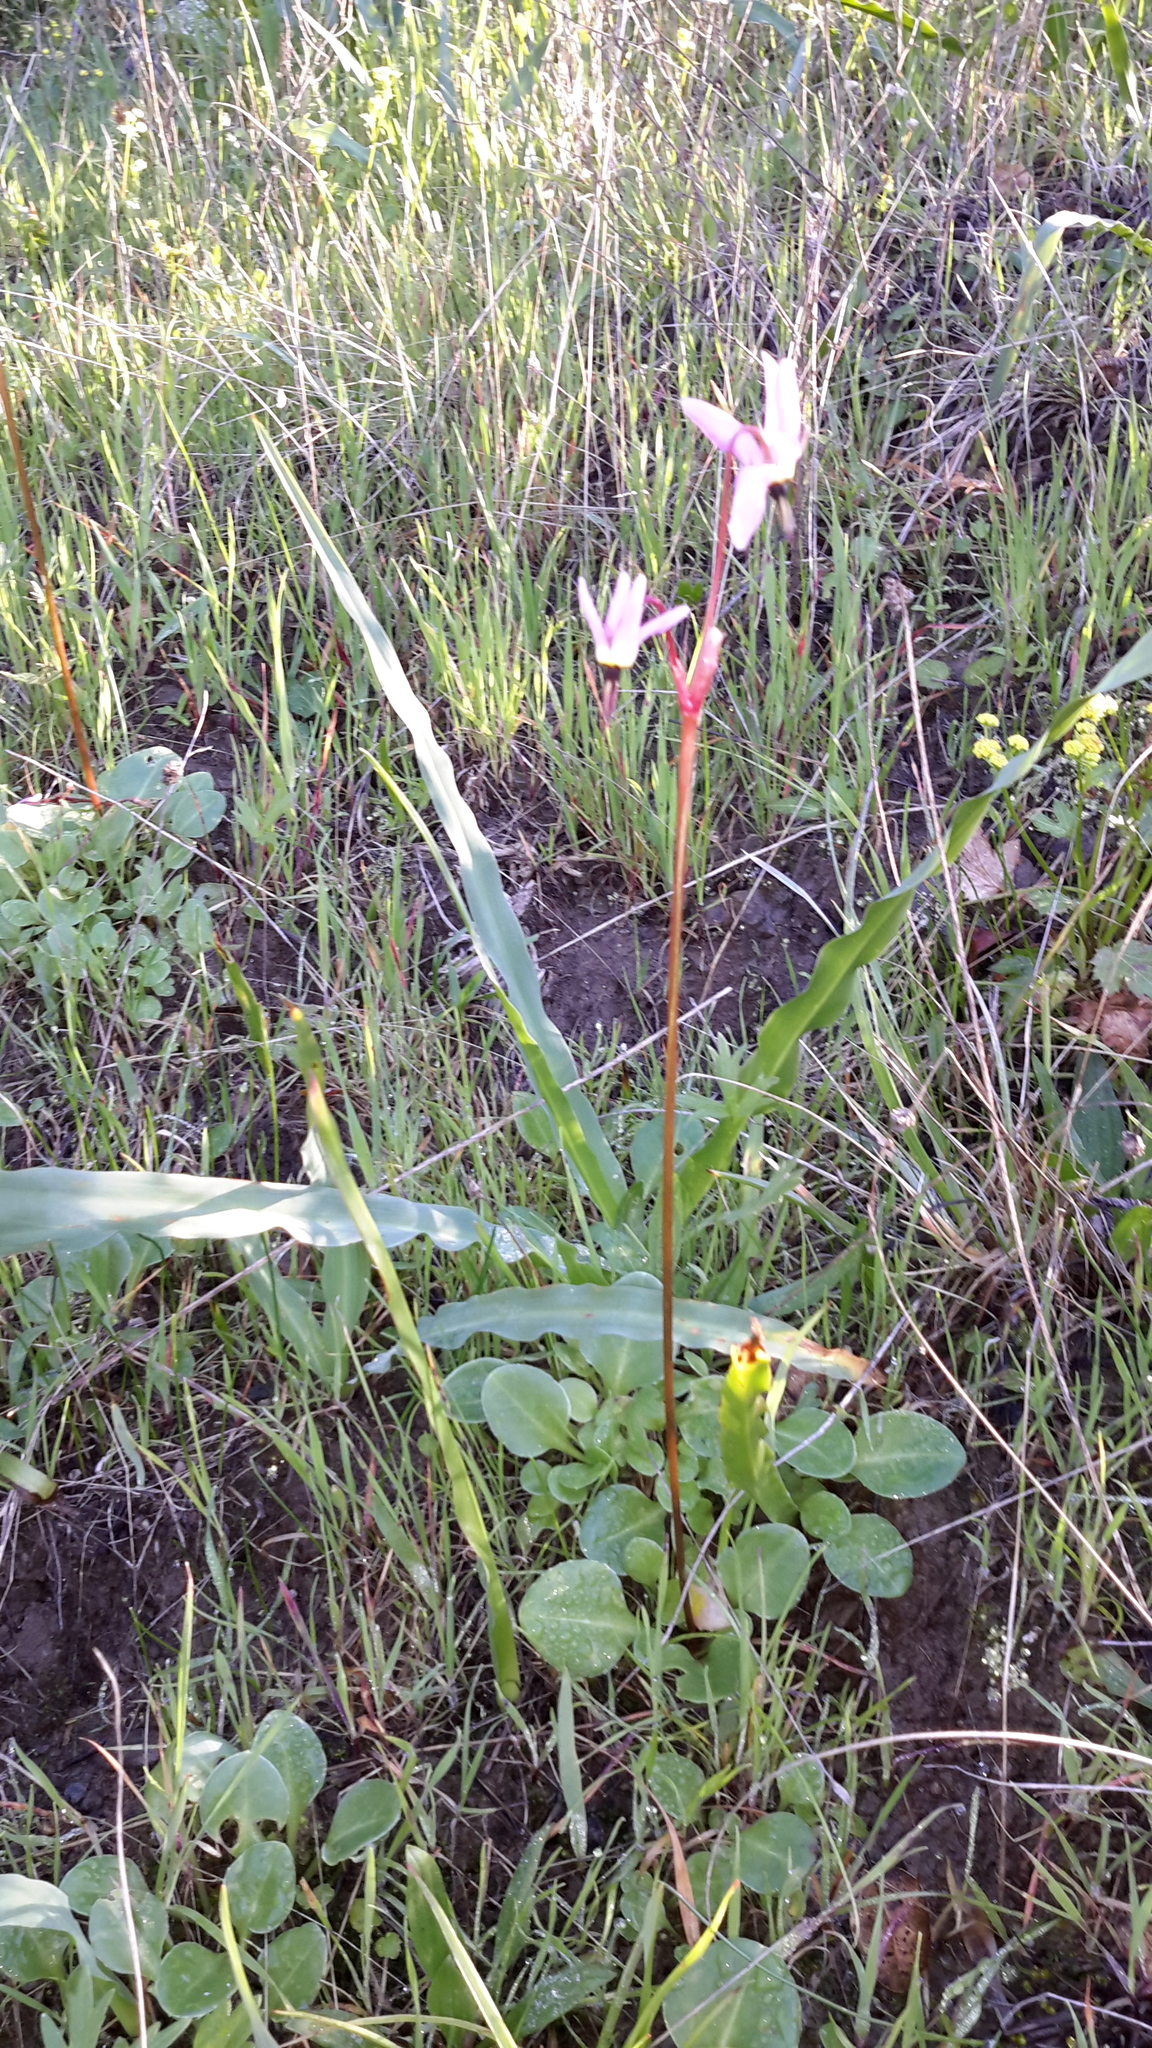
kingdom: Plantae
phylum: Tracheophyta
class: Magnoliopsida
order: Ericales
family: Primulaceae
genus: Dodecatheon
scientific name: Dodecatheon hendersonii
